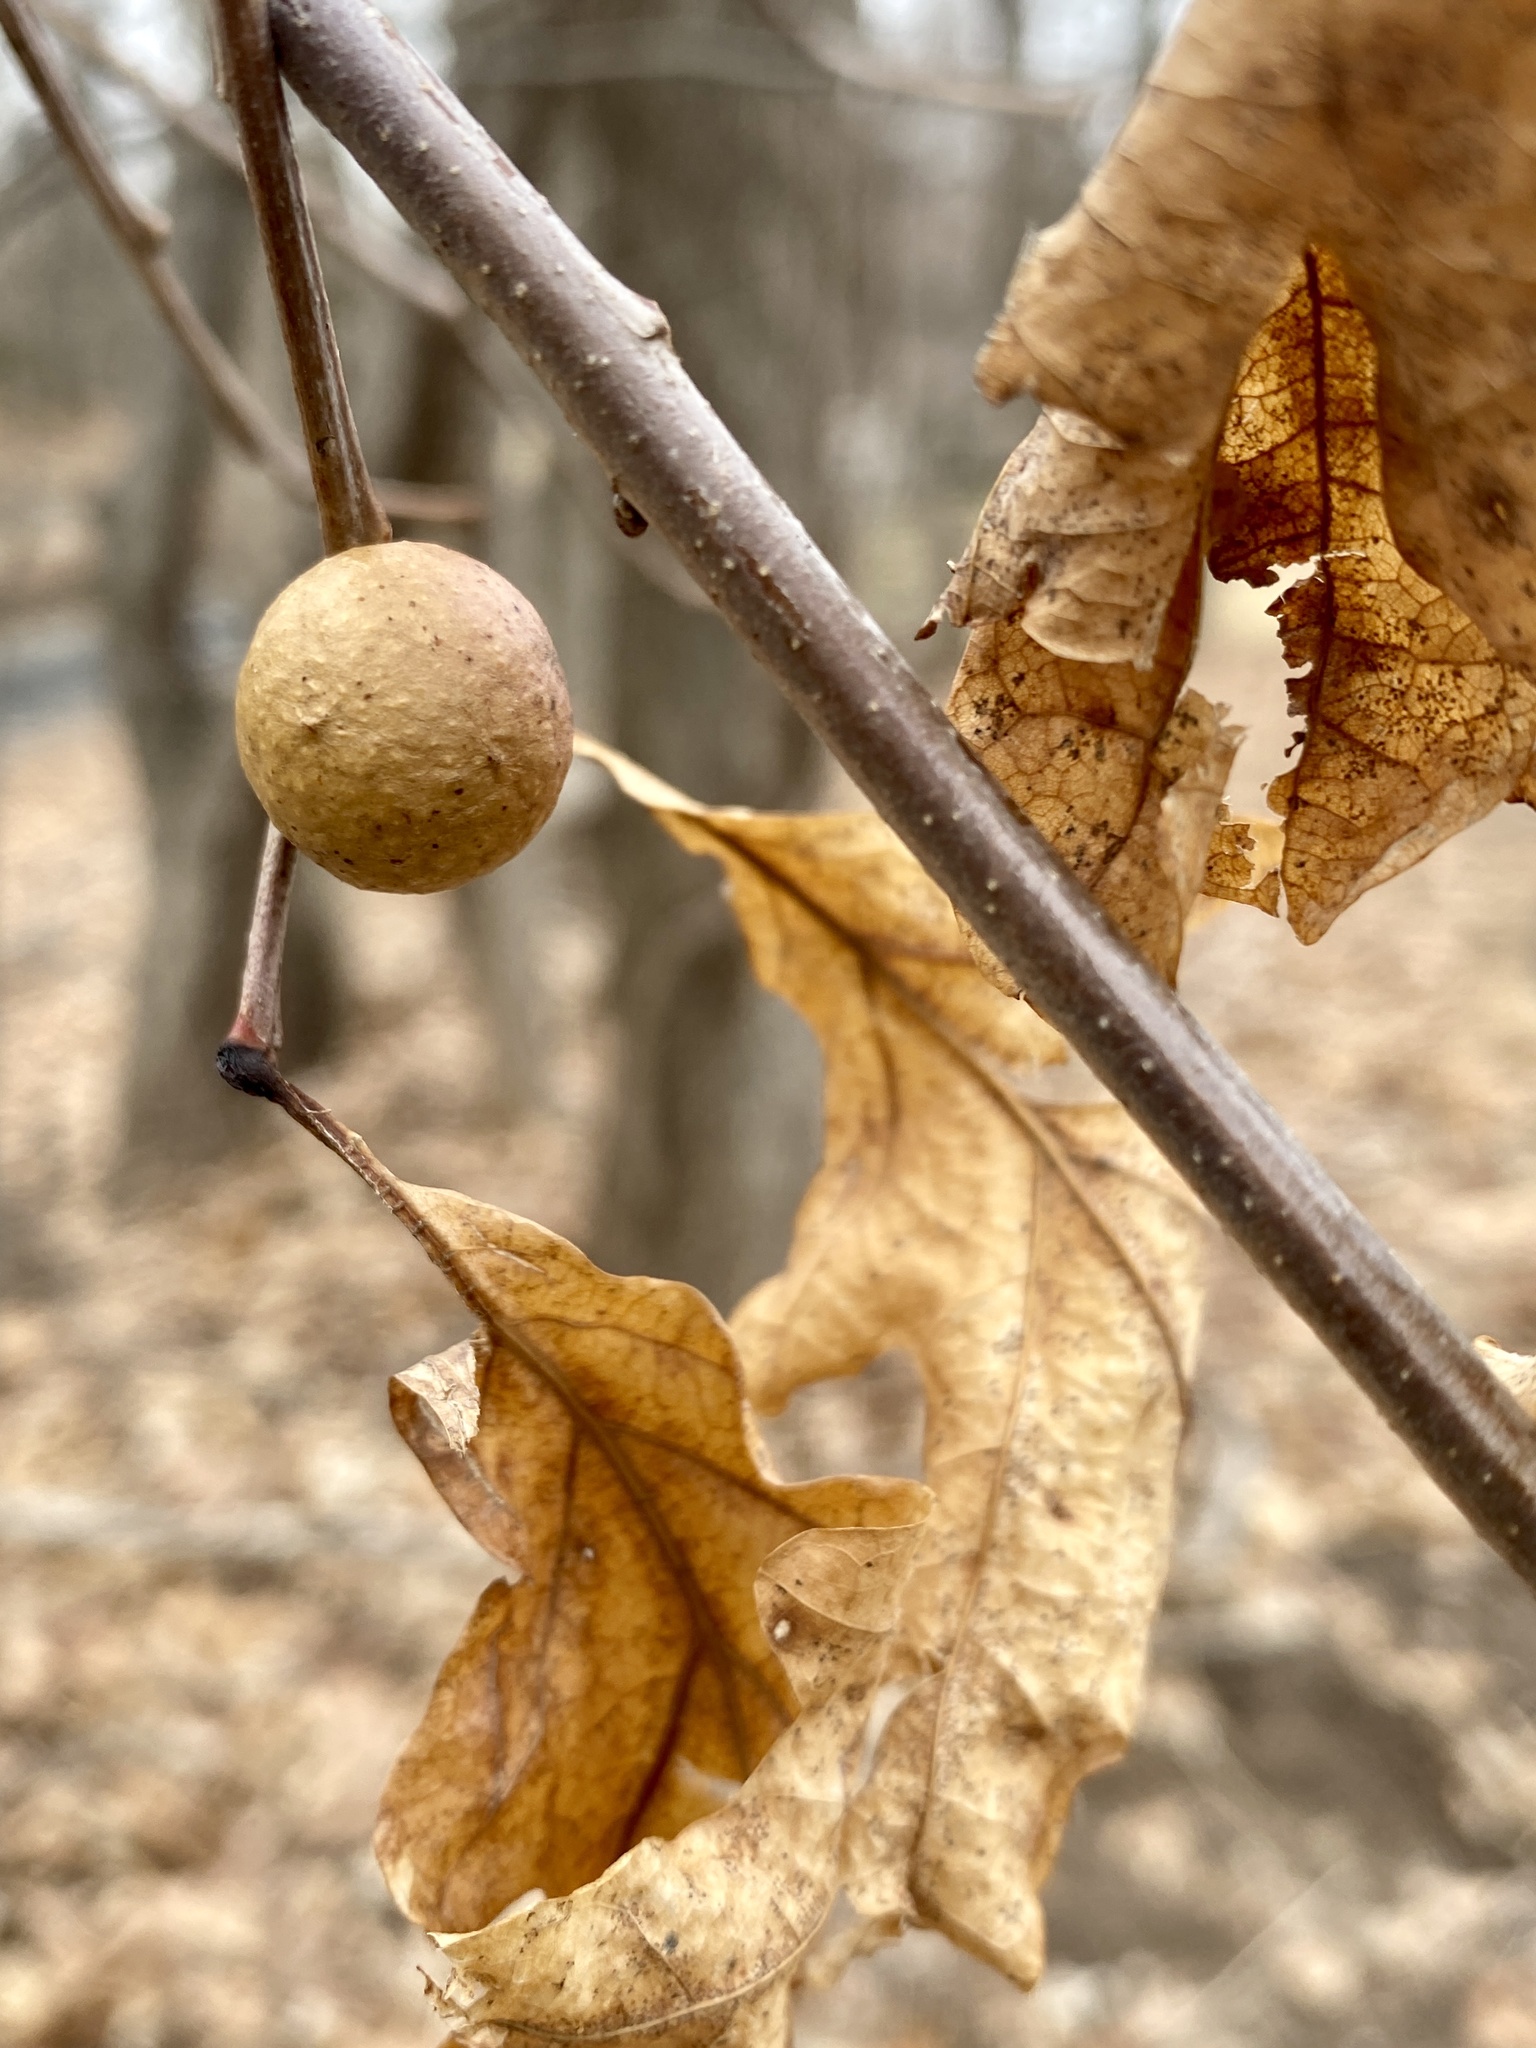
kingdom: Animalia
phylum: Arthropoda
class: Insecta
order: Hymenoptera
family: Cynipidae
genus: Disholcaspis
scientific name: Disholcaspis quercusglobulus
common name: Round bullet gall wasp
